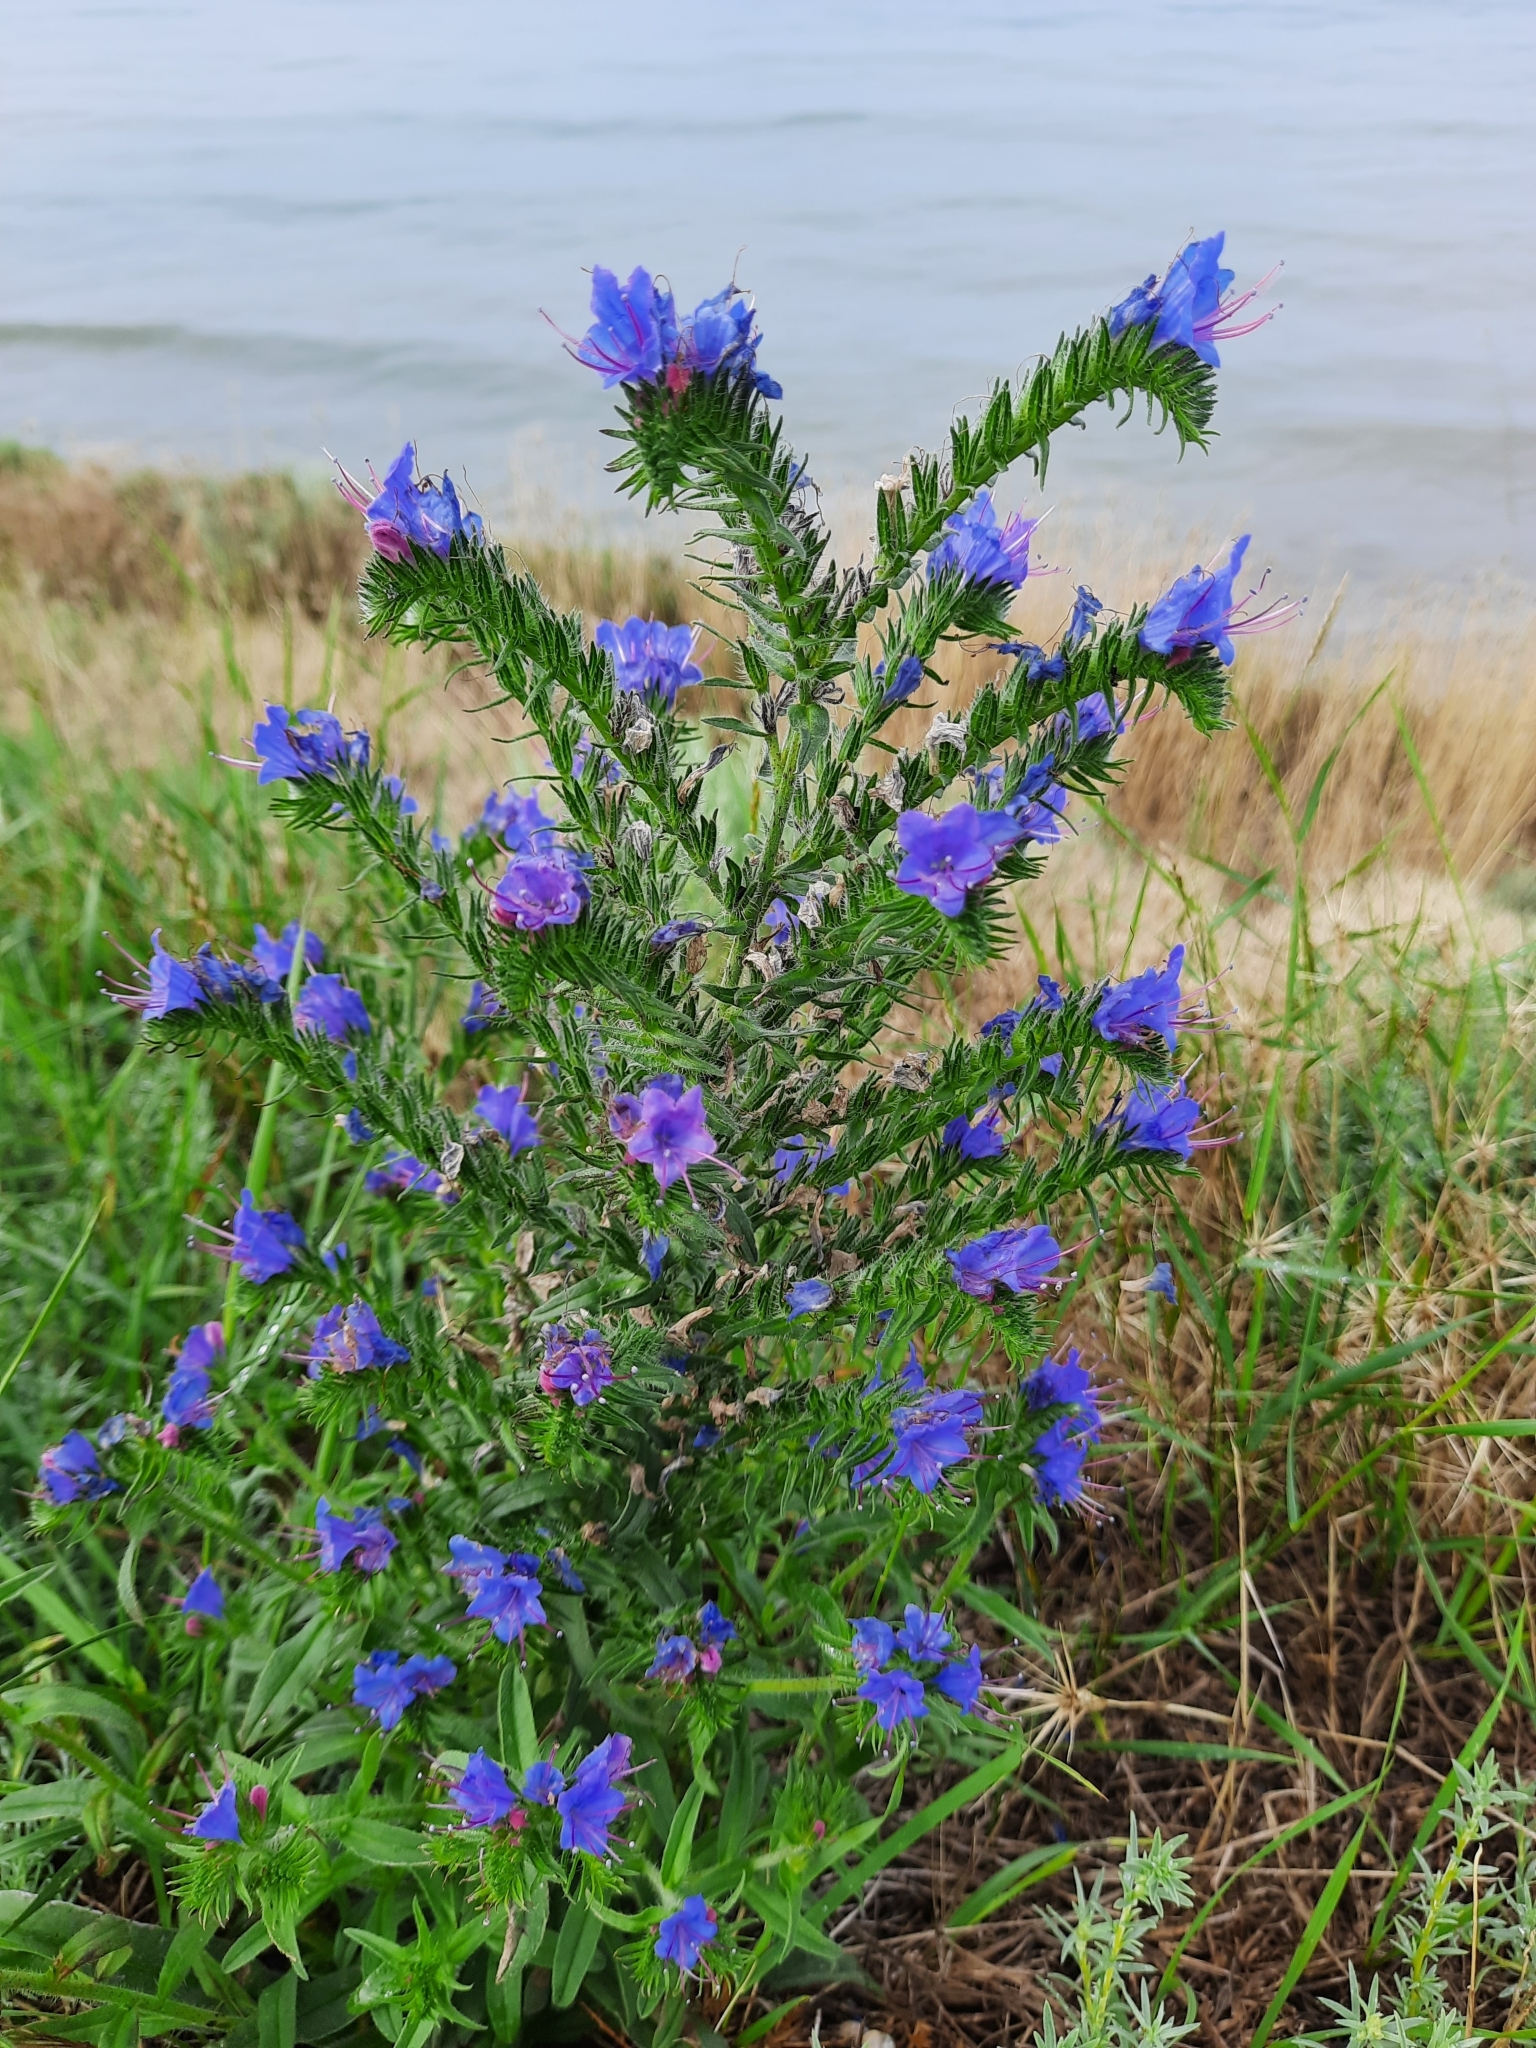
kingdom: Plantae
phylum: Tracheophyta
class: Magnoliopsida
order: Boraginales
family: Boraginaceae
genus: Echium
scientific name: Echium vulgare
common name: Common viper's bugloss
